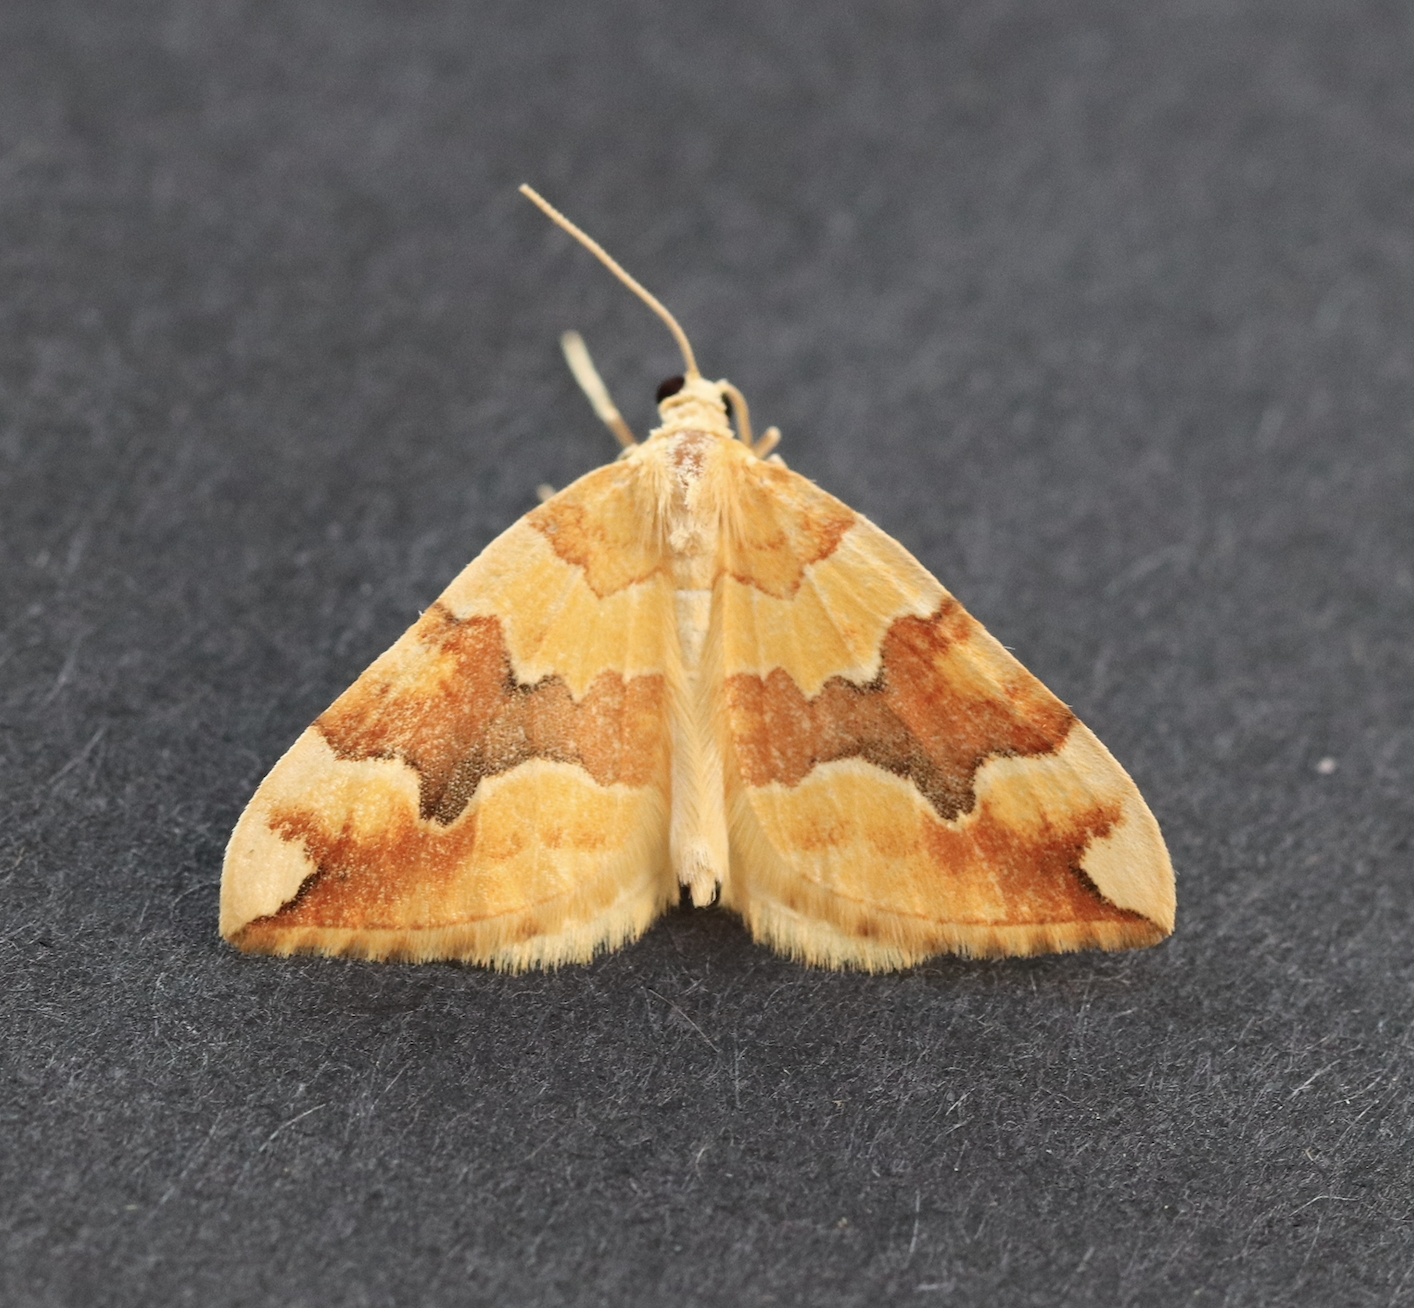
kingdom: Animalia
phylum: Arthropoda
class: Insecta
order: Lepidoptera
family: Geometridae
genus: Cidaria
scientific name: Cidaria fulvata
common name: Barred yellow
